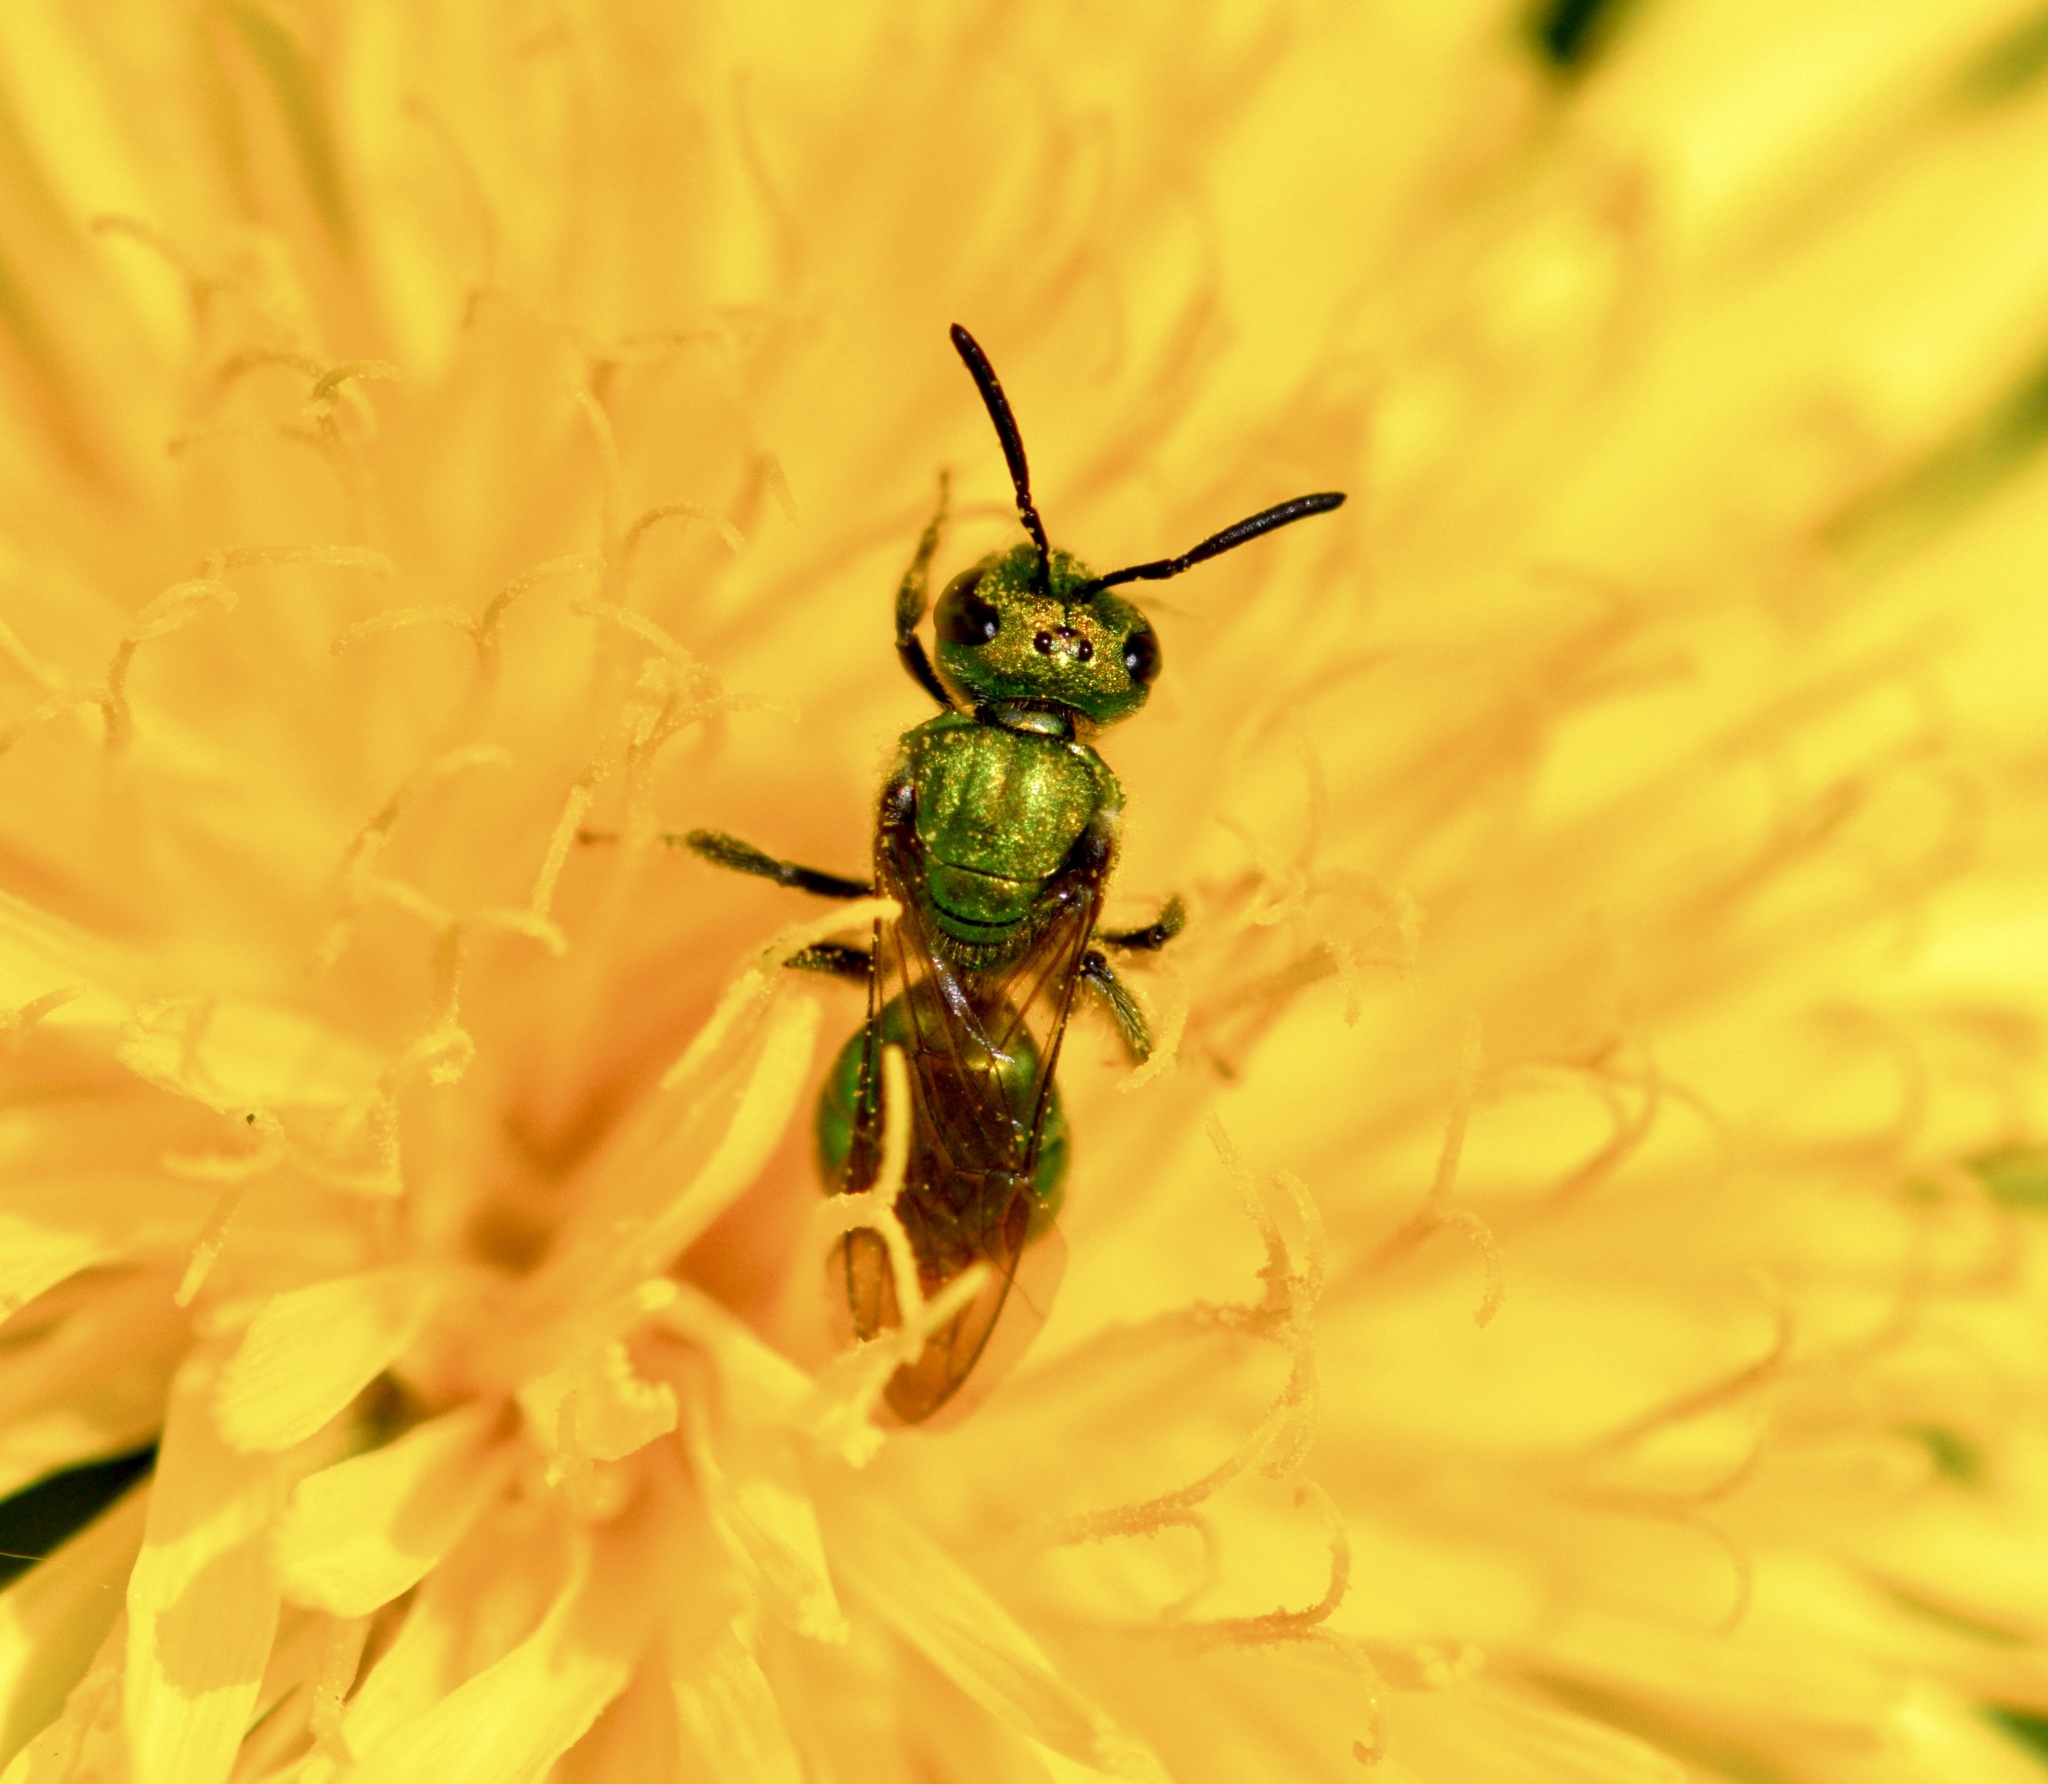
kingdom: Animalia
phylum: Arthropoda
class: Insecta
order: Hymenoptera
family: Halictidae
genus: Augochlora
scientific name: Augochlora pura
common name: Pure green sweat bee
